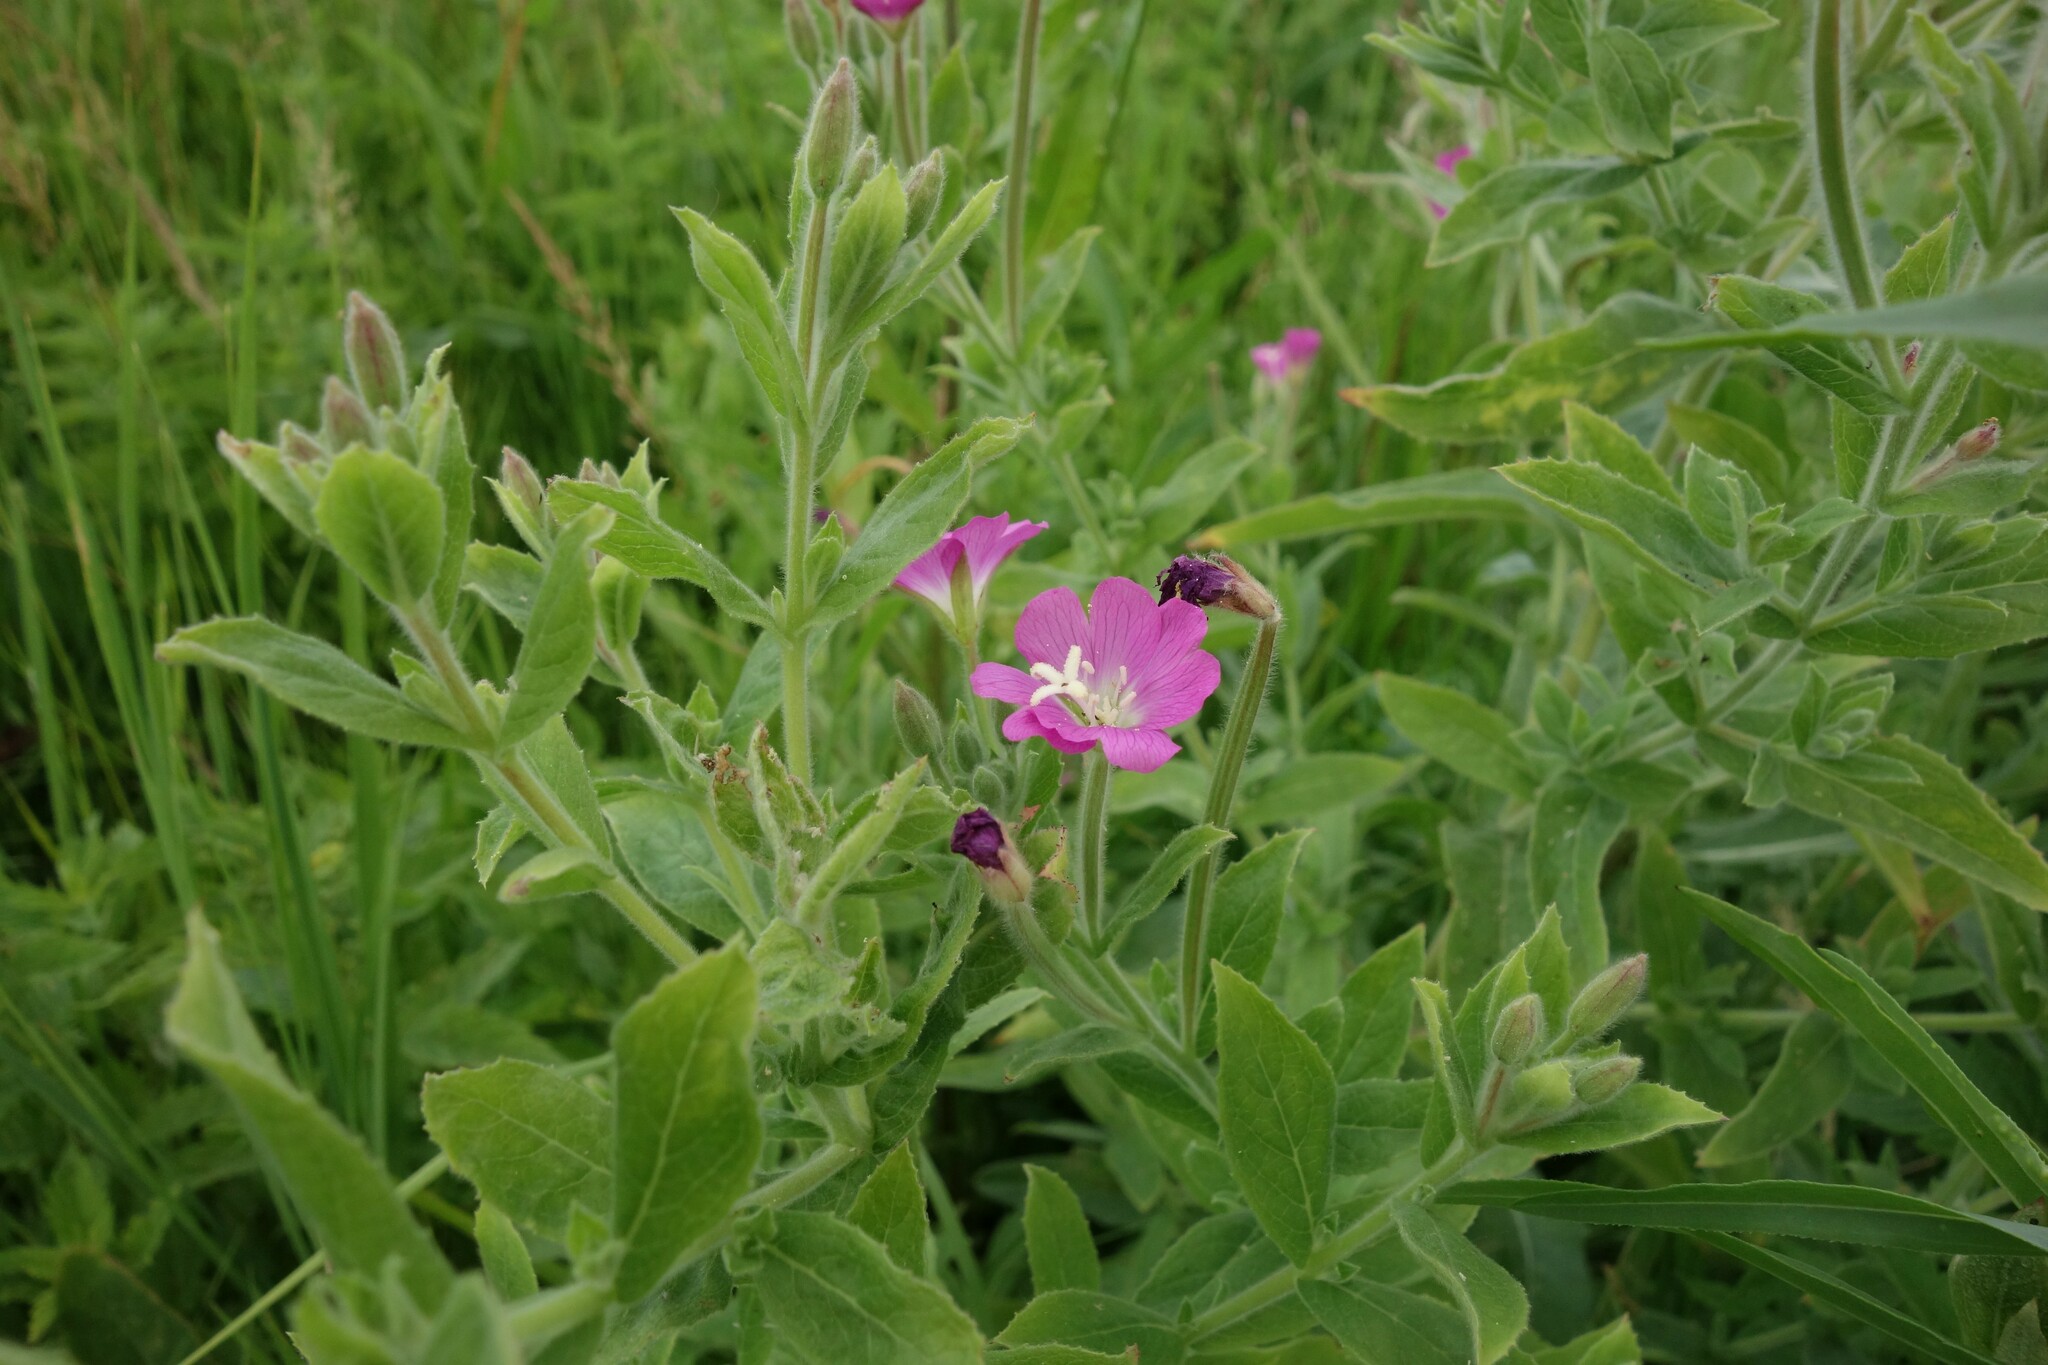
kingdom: Plantae
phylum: Tracheophyta
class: Magnoliopsida
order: Myrtales
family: Onagraceae
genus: Epilobium
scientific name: Epilobium hirsutum
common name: Great willowherb
